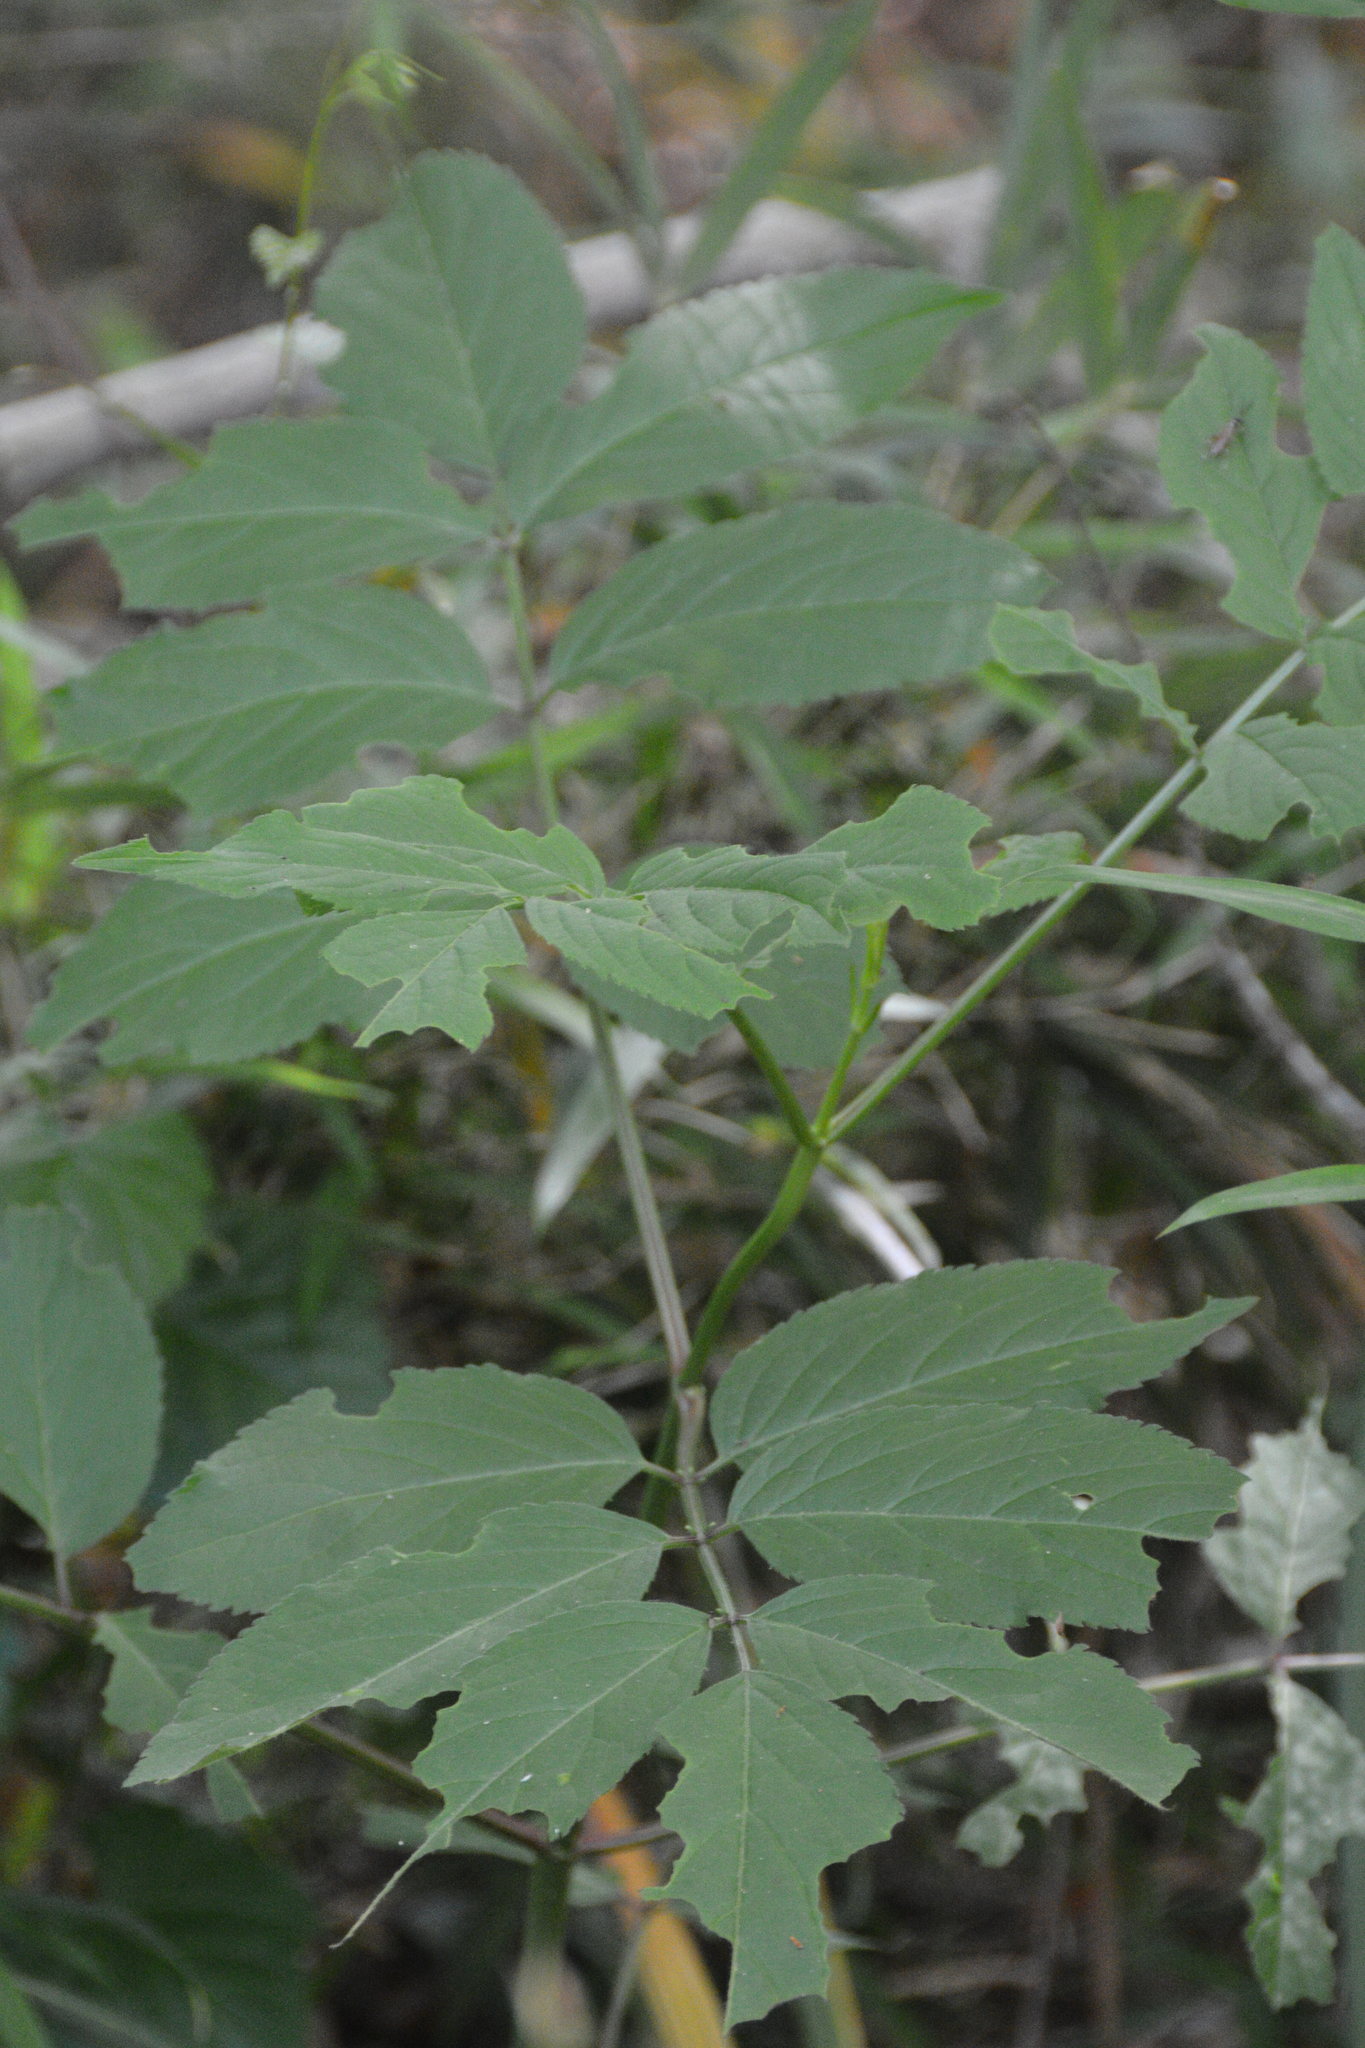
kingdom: Plantae
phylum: Tracheophyta
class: Magnoliopsida
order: Dipsacales
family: Viburnaceae
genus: Sambucus
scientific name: Sambucus canadensis
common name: American elder
